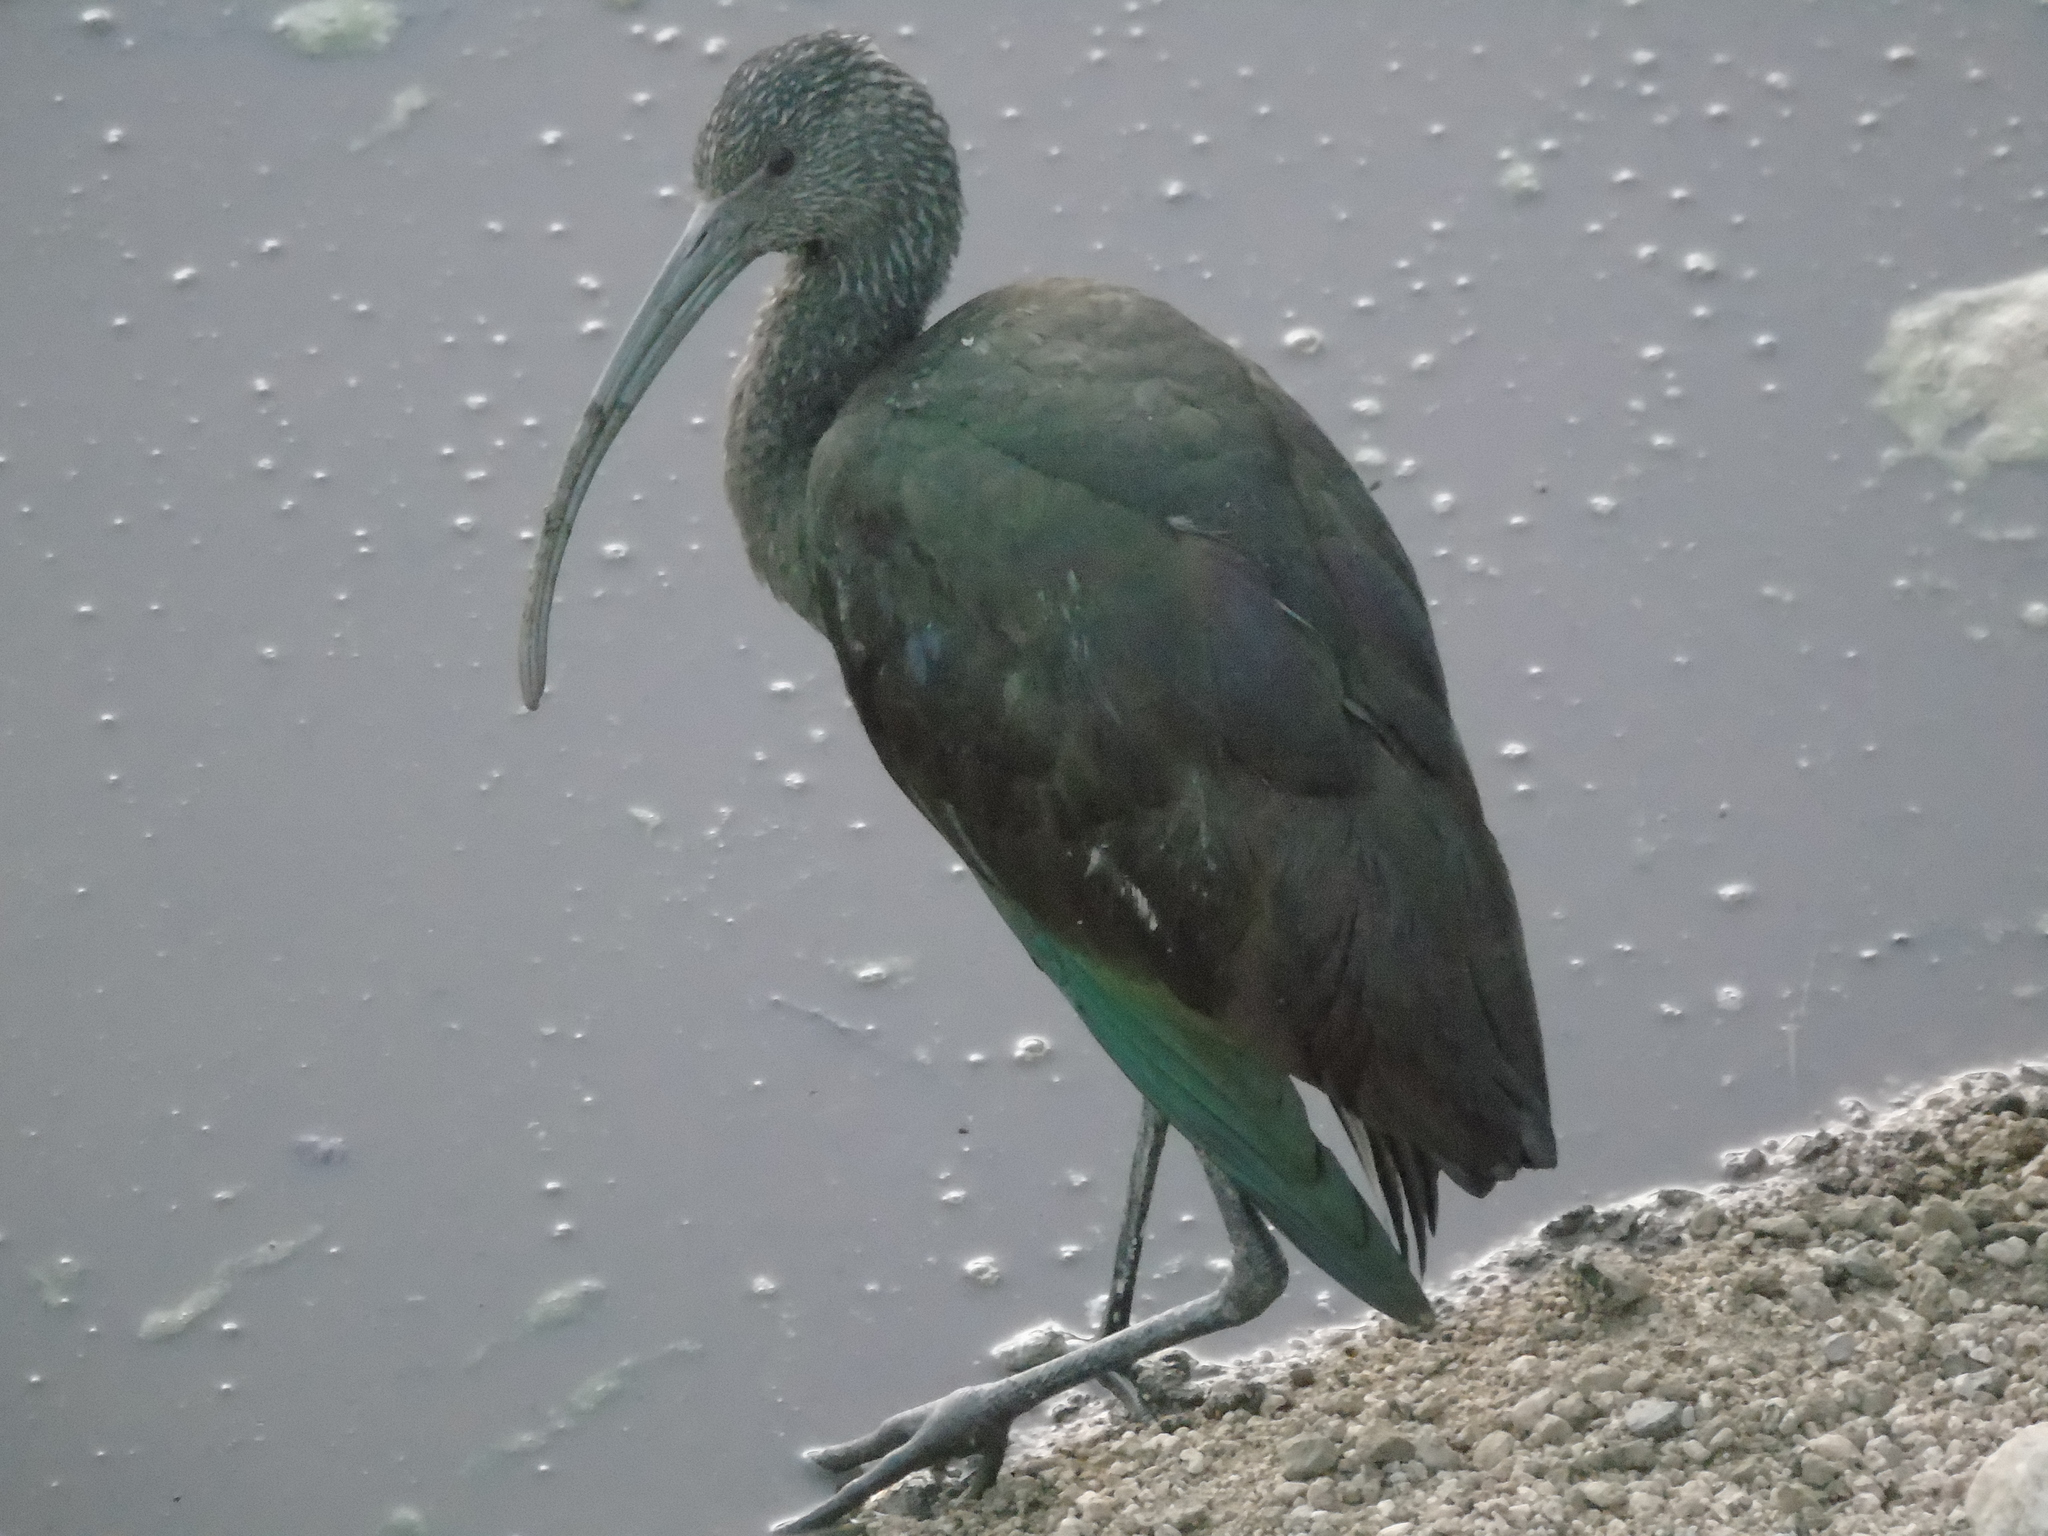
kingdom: Animalia
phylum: Chordata
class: Aves
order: Pelecaniformes
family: Threskiornithidae
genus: Plegadis
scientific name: Plegadis chihi
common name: White-faced ibis
